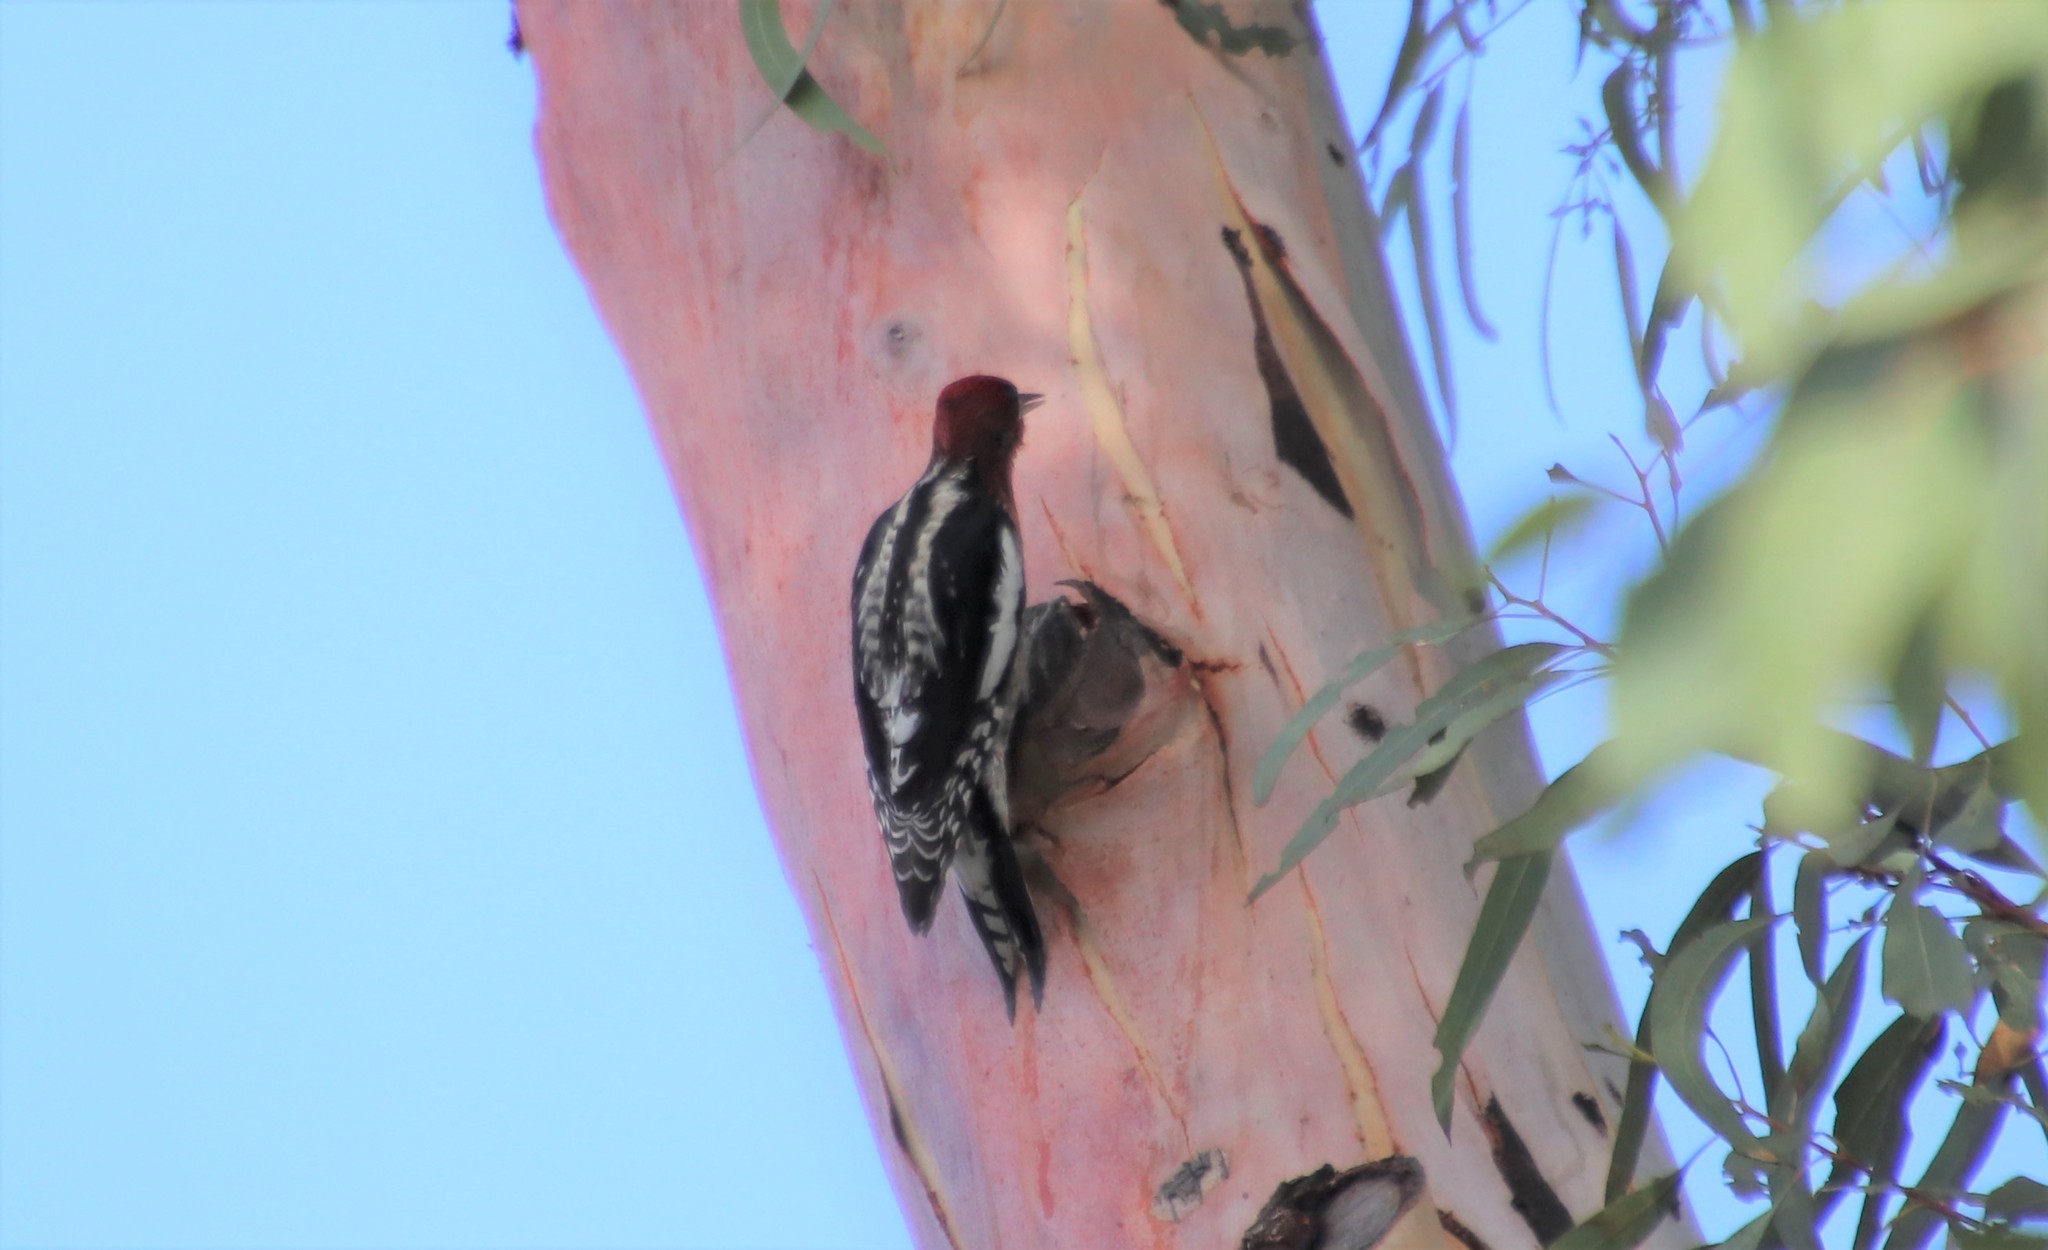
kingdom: Animalia
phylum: Chordata
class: Aves
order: Piciformes
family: Picidae
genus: Sphyrapicus
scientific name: Sphyrapicus ruber
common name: Red-breasted sapsucker
